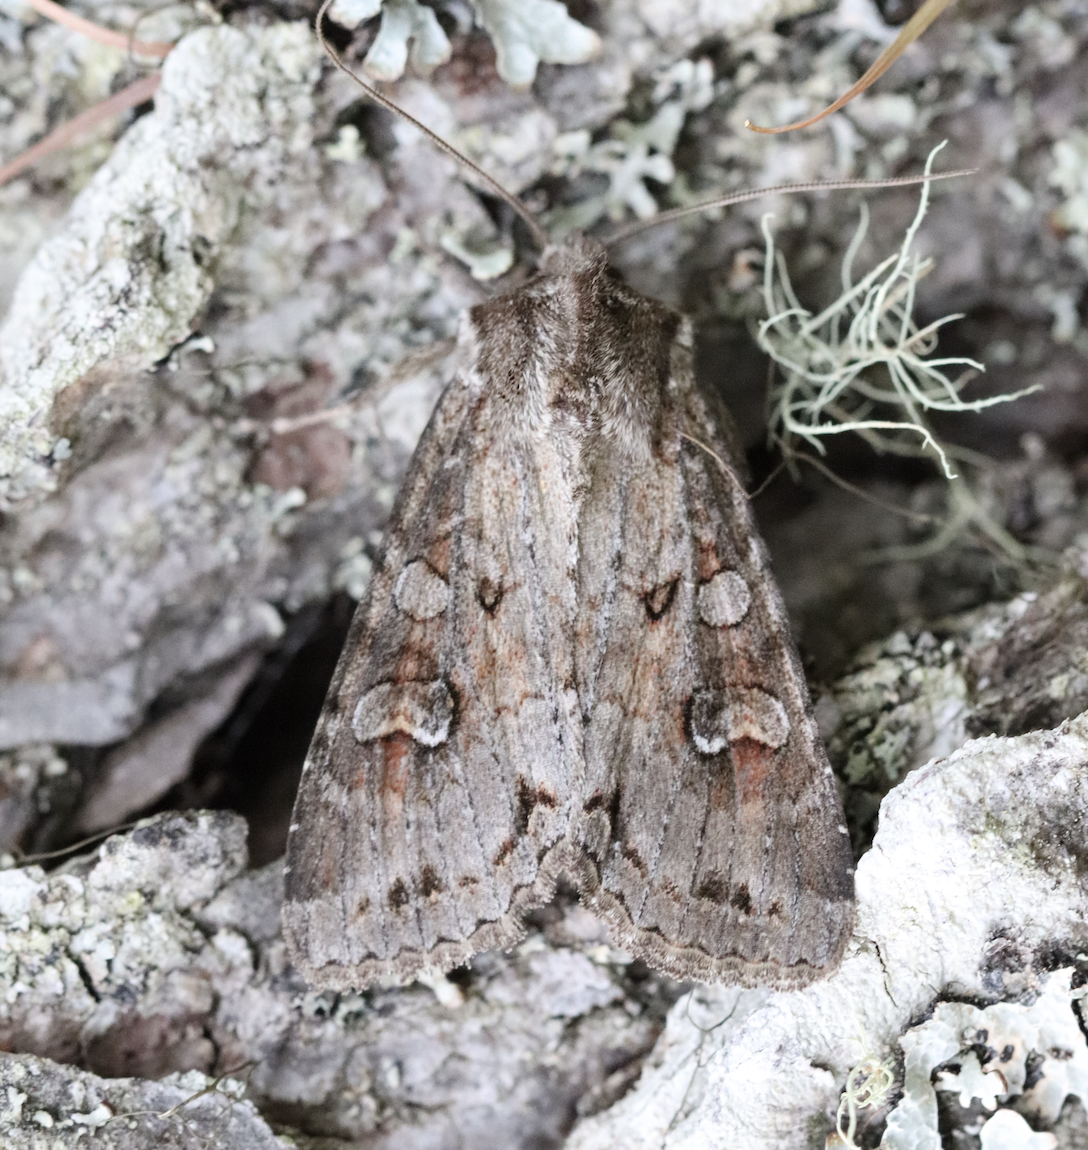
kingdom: Animalia
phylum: Arthropoda
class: Insecta
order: Lepidoptera
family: Noctuidae
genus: Polia
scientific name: Polia bombycina
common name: Pale shining brown
